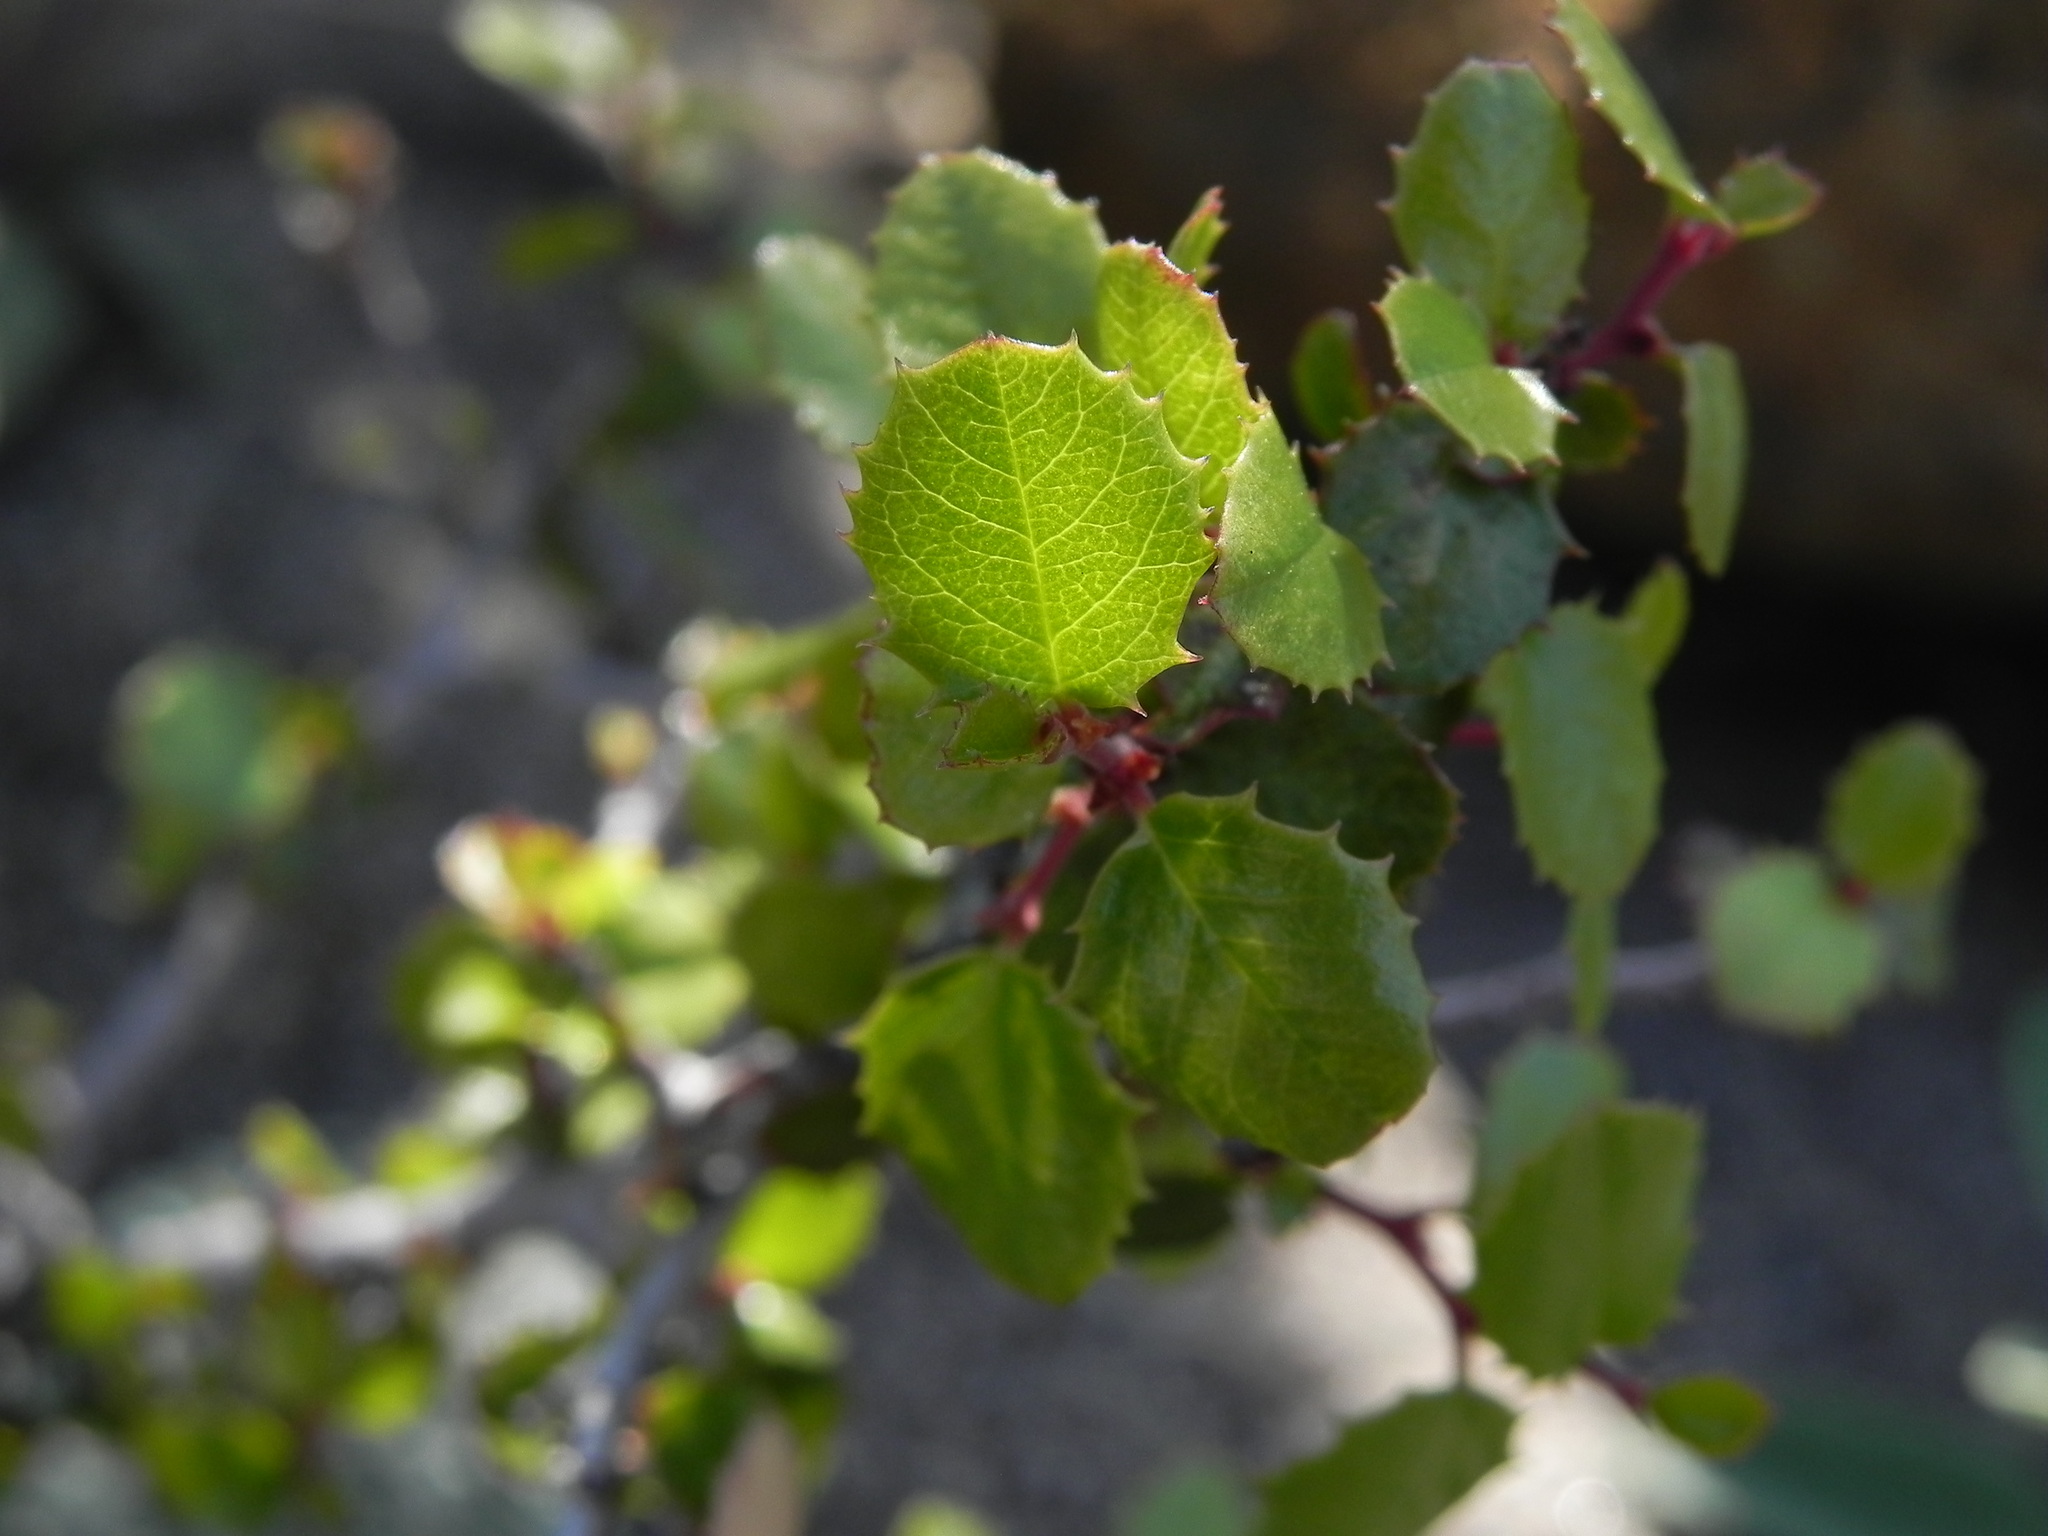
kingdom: Plantae
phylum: Tracheophyta
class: Magnoliopsida
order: Rosales
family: Rhamnaceae
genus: Endotropis
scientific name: Endotropis crocea
